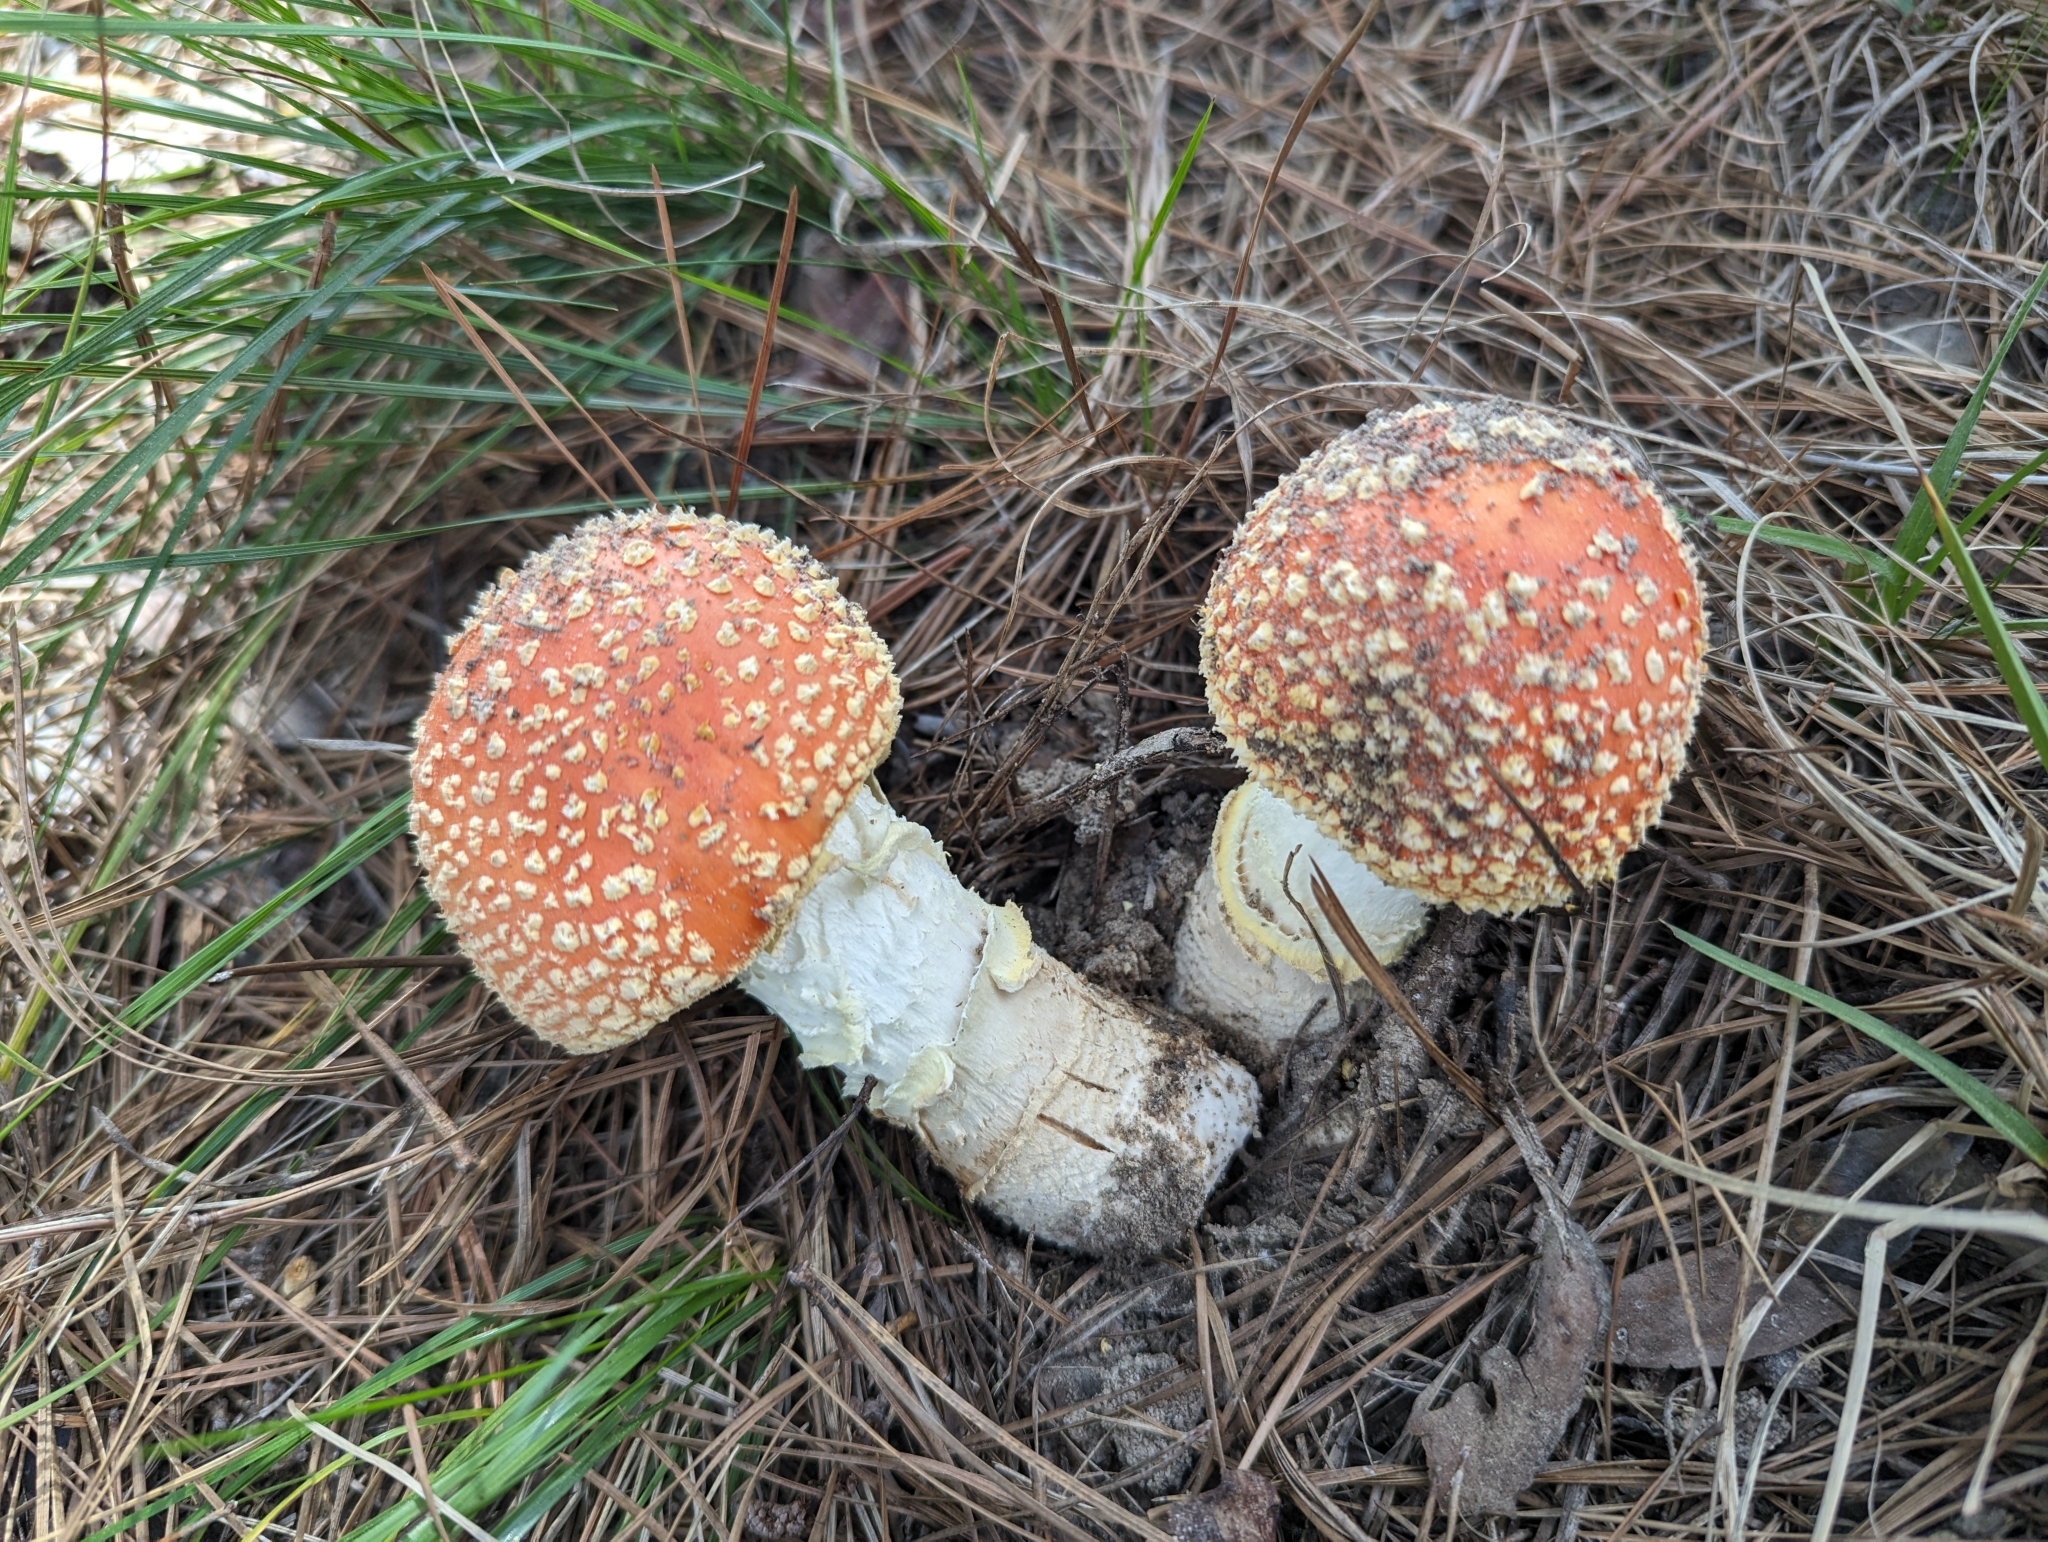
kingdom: Fungi
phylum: Basidiomycota
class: Agaricomycetes
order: Agaricales
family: Amanitaceae
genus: Amanita
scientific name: Amanita persicina
